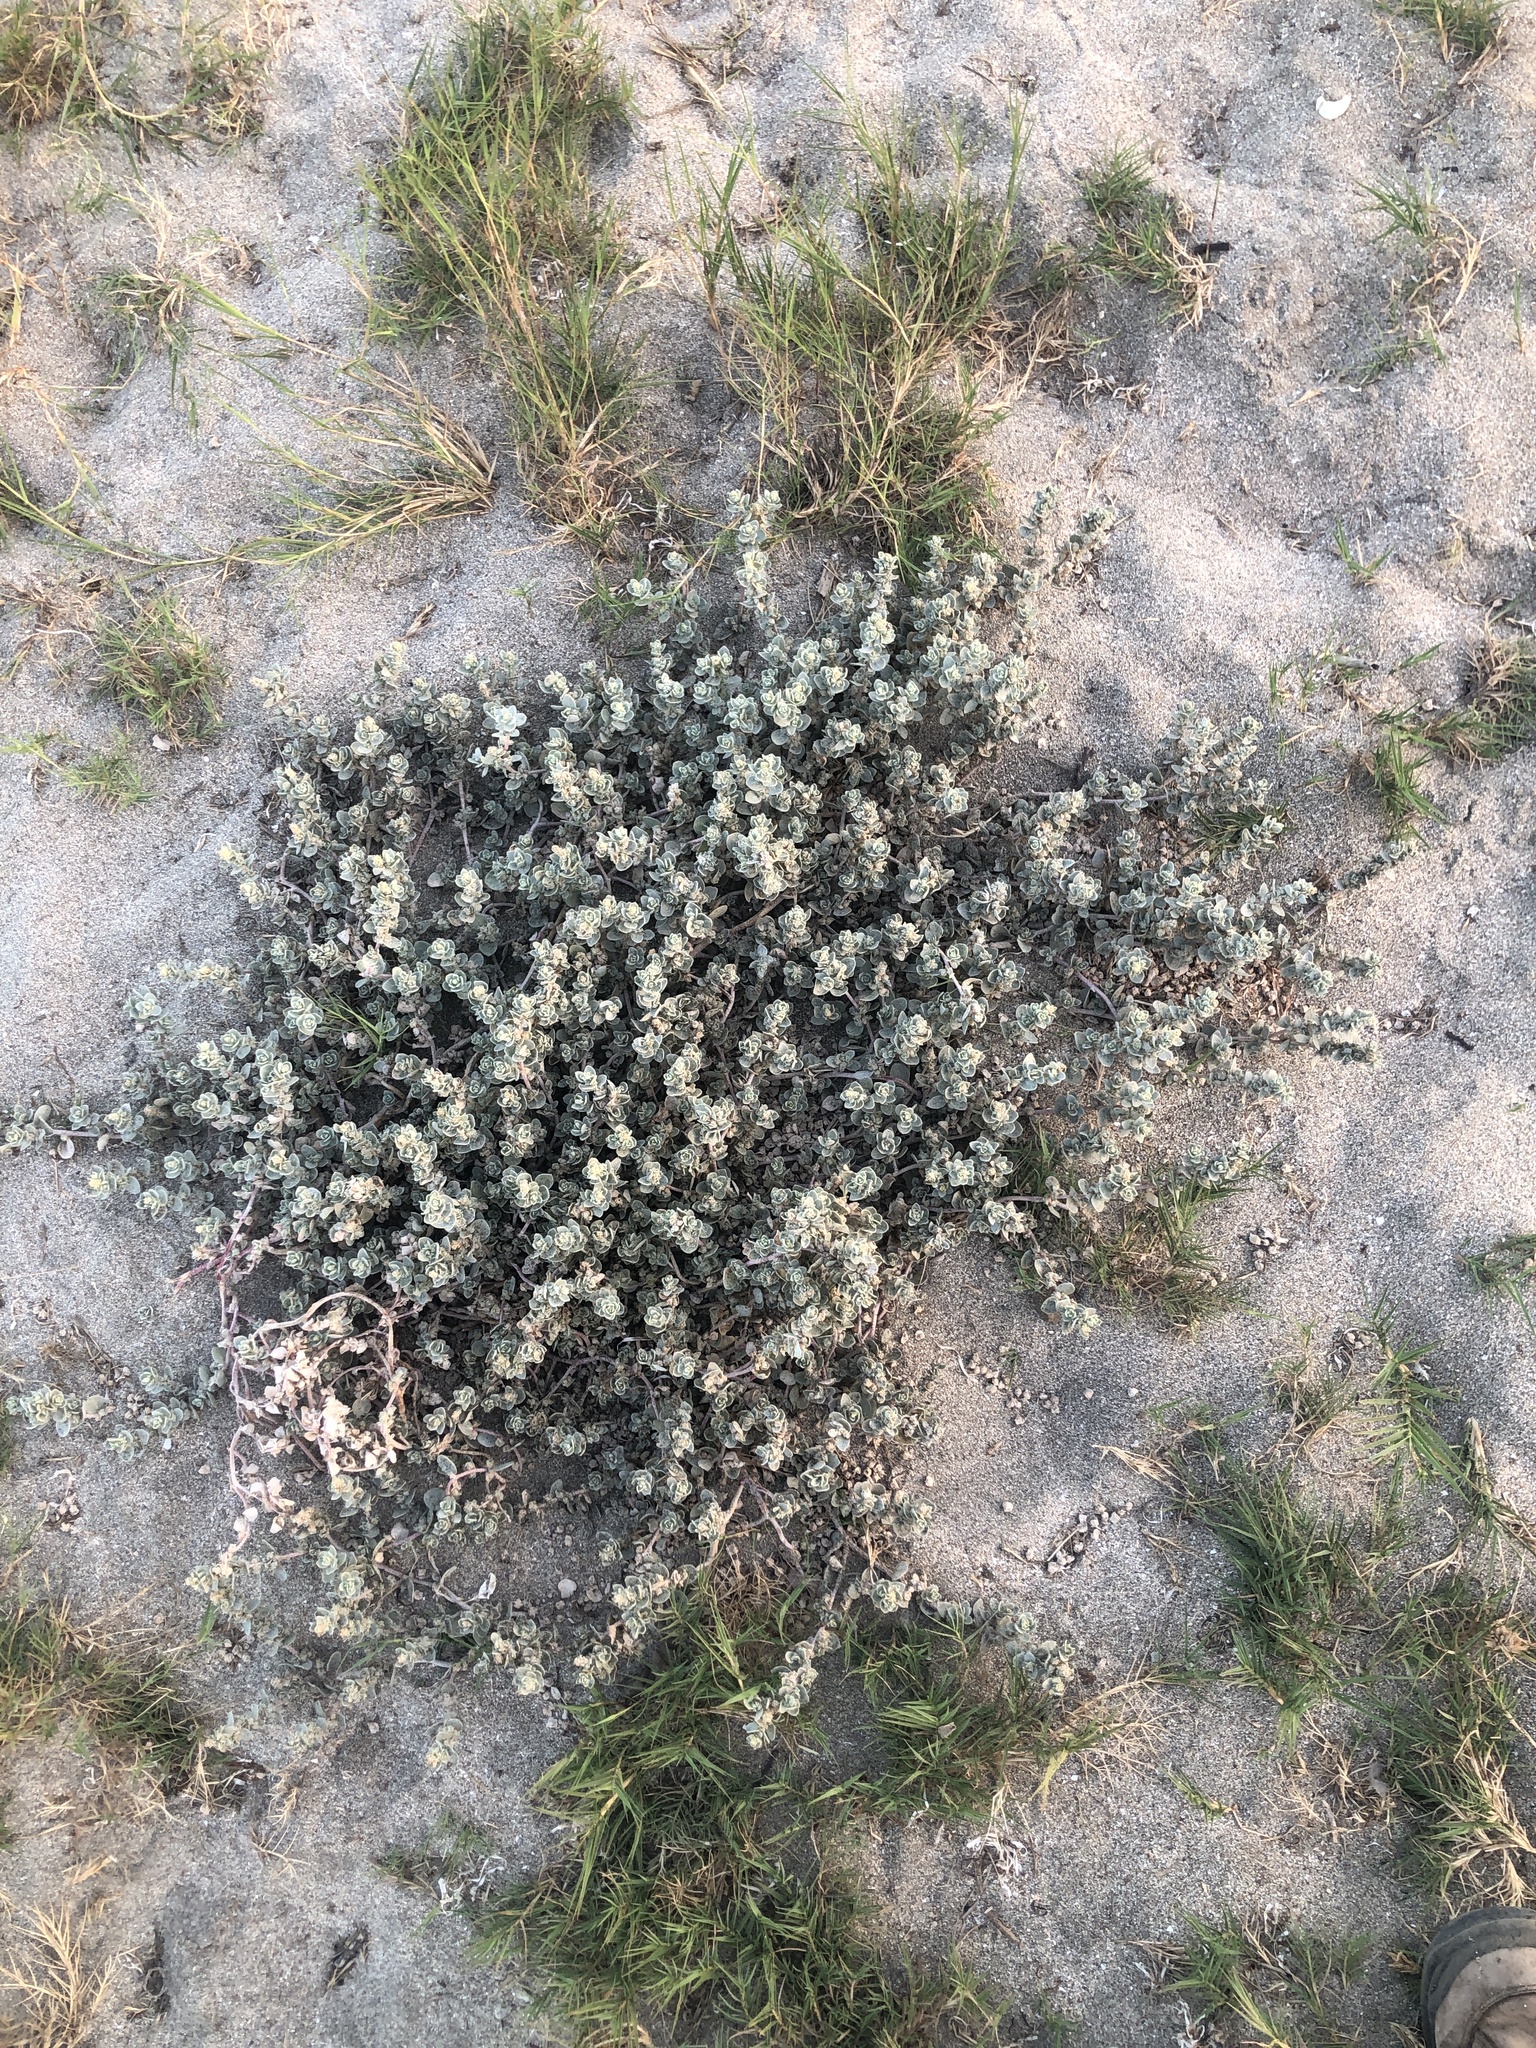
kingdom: Plantae
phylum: Tracheophyta
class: Magnoliopsida
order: Caryophyllales
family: Amaranthaceae
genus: Atriplex
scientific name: Atriplex leucophylla
